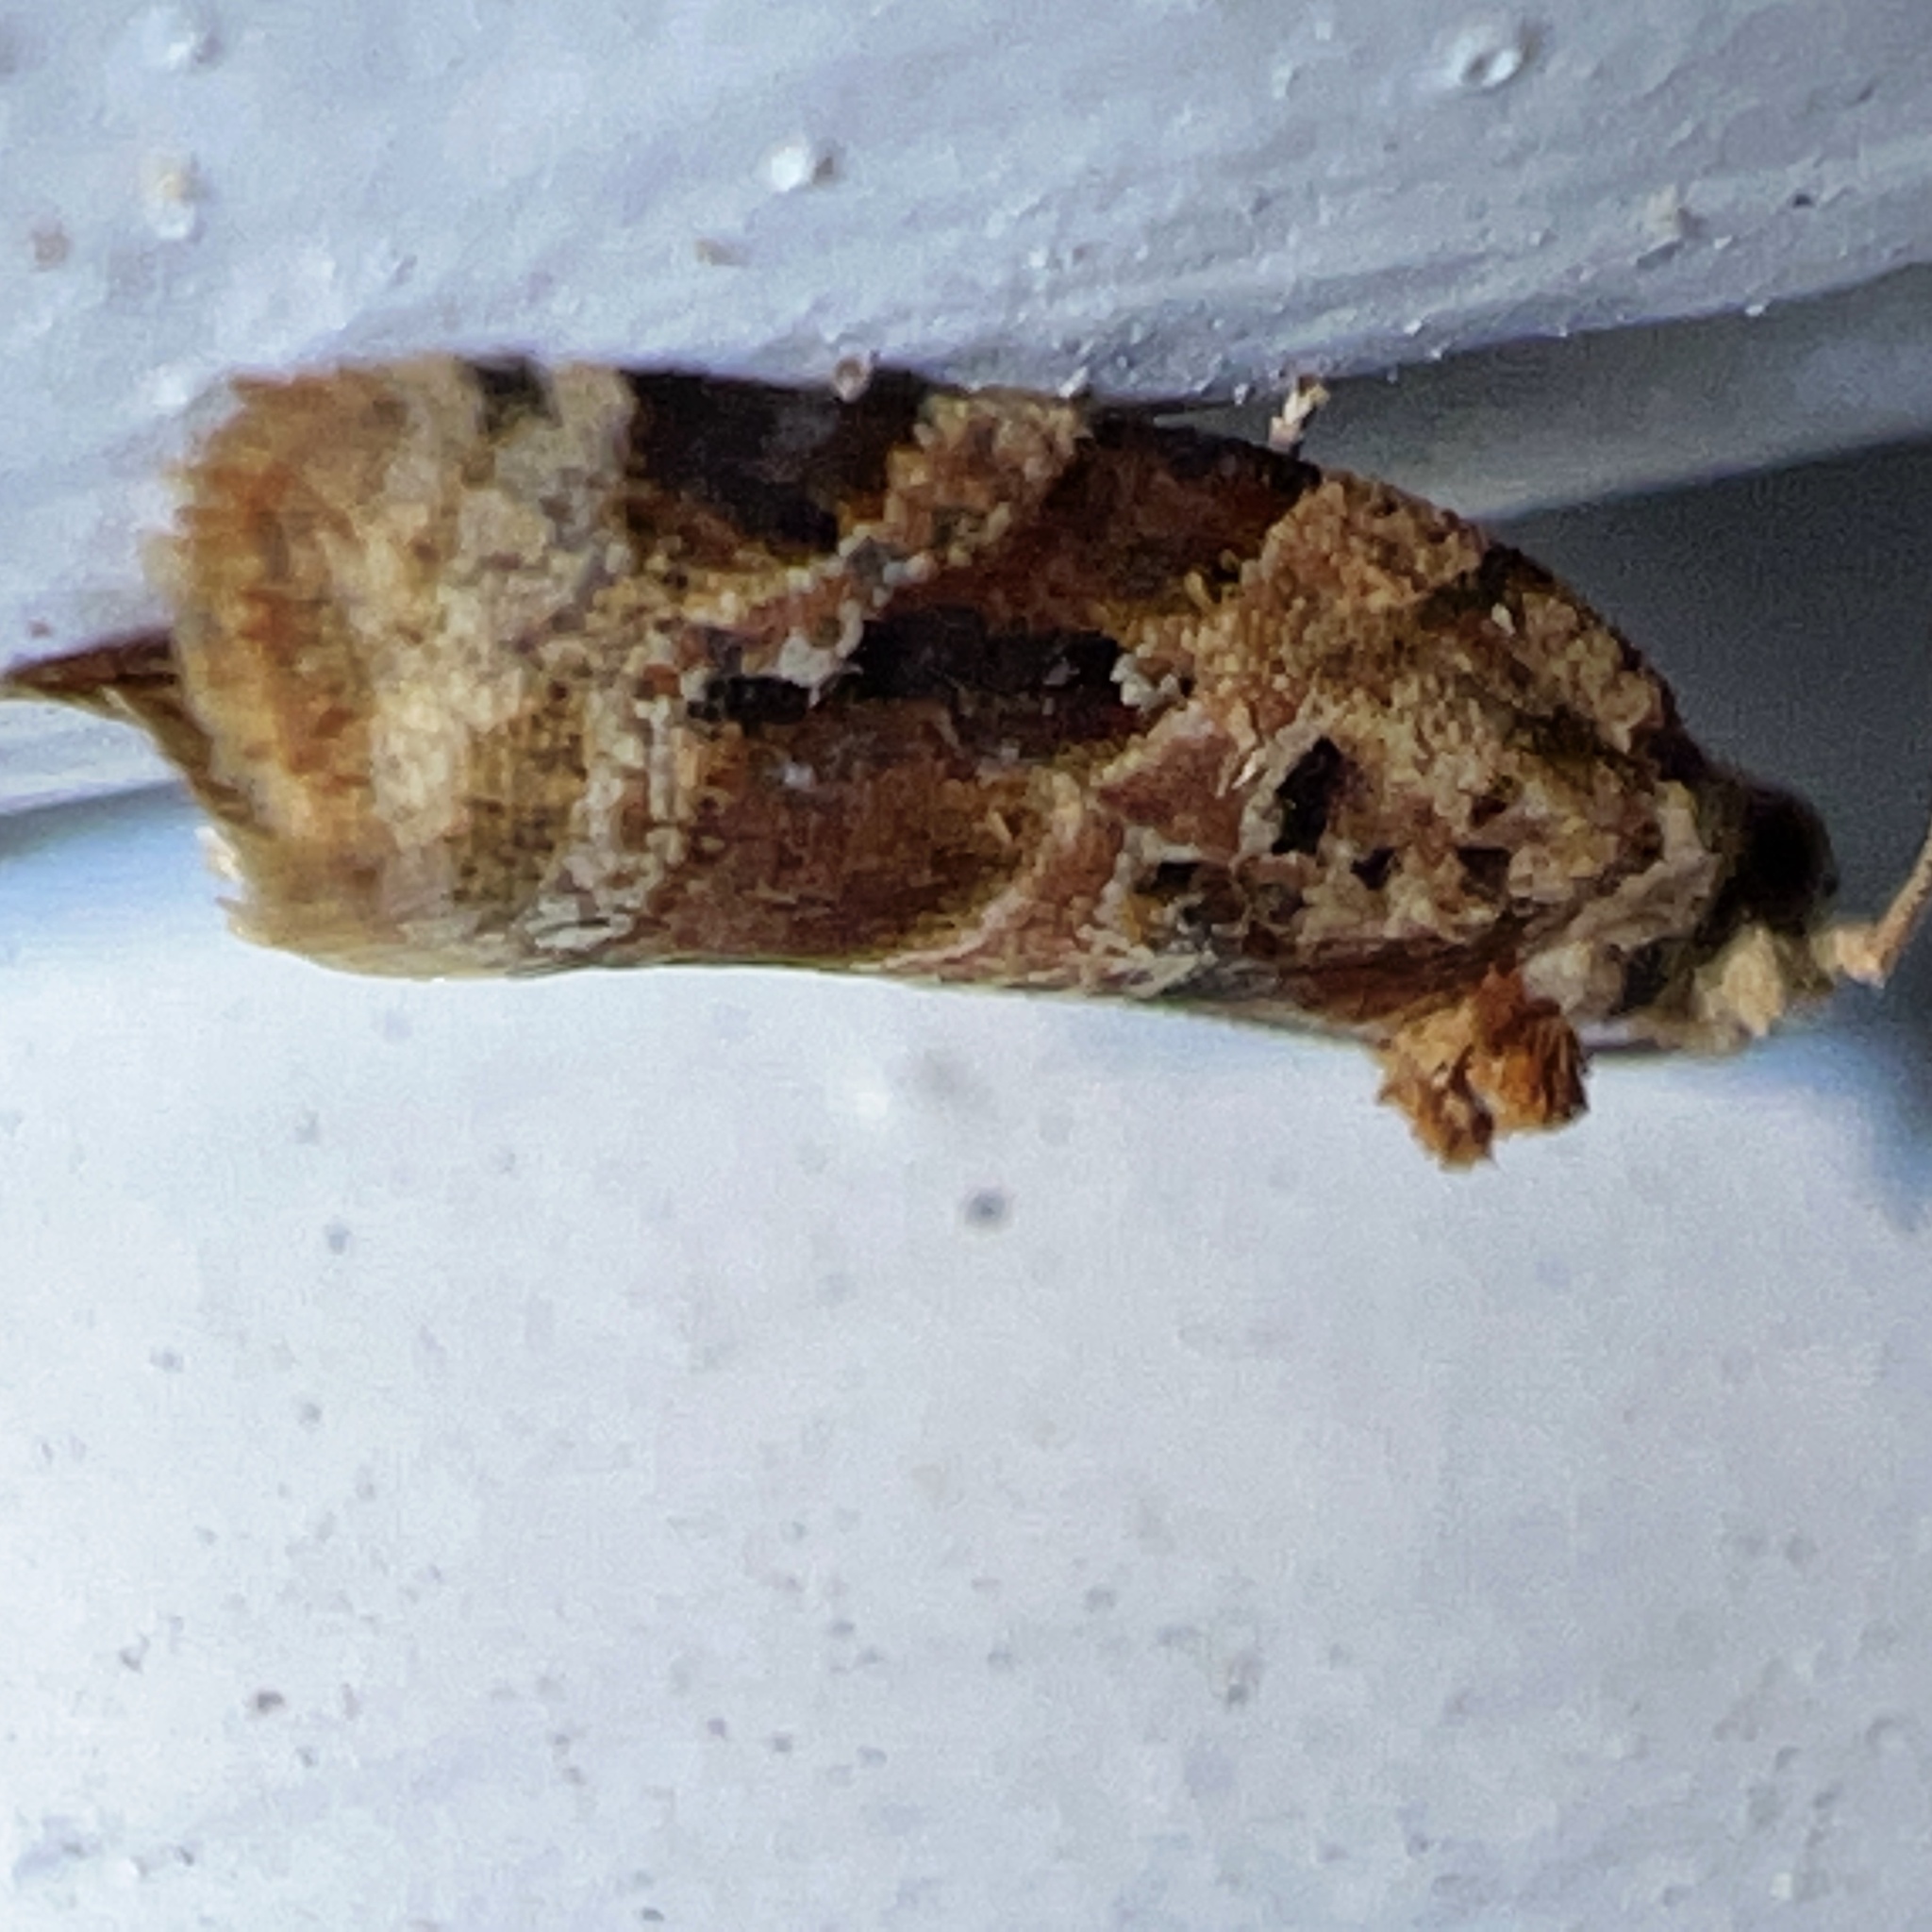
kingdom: Animalia
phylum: Arthropoda
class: Insecta
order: Lepidoptera
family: Tortricidae
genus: Argyrotaenia
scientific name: Argyrotaenia velutinana
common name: Red-banded leafroller moth
